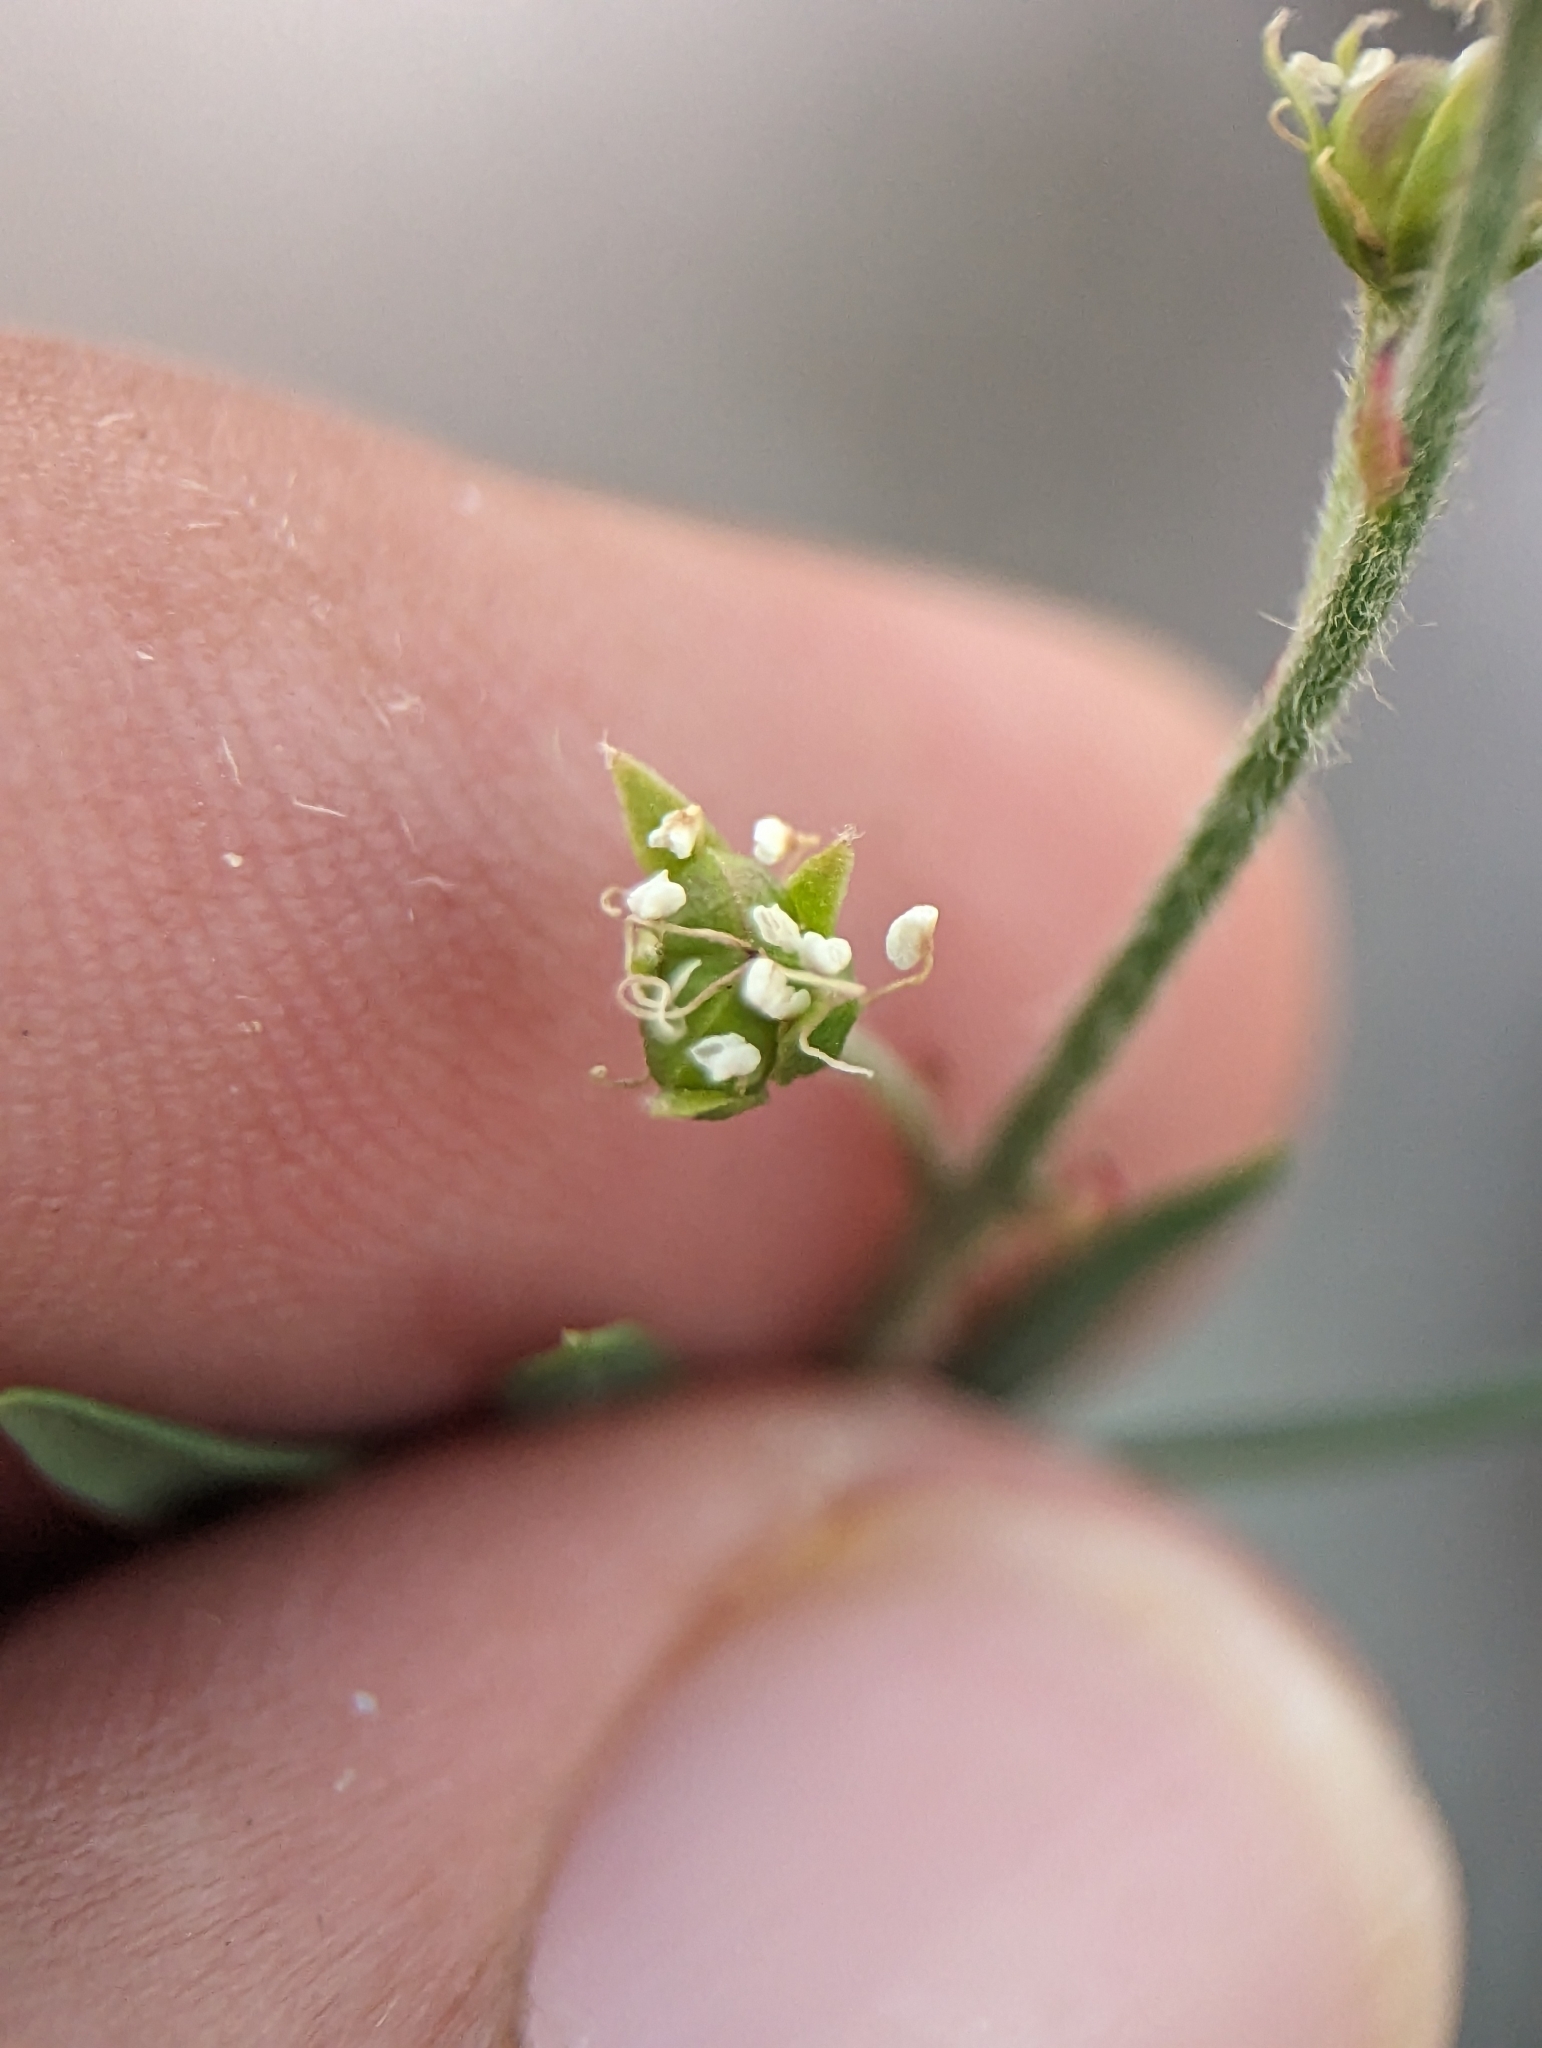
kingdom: Plantae
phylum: Tracheophyta
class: Magnoliopsida
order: Malpighiales
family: Malpighiaceae
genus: Galphimia
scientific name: Galphimia angustifolia
